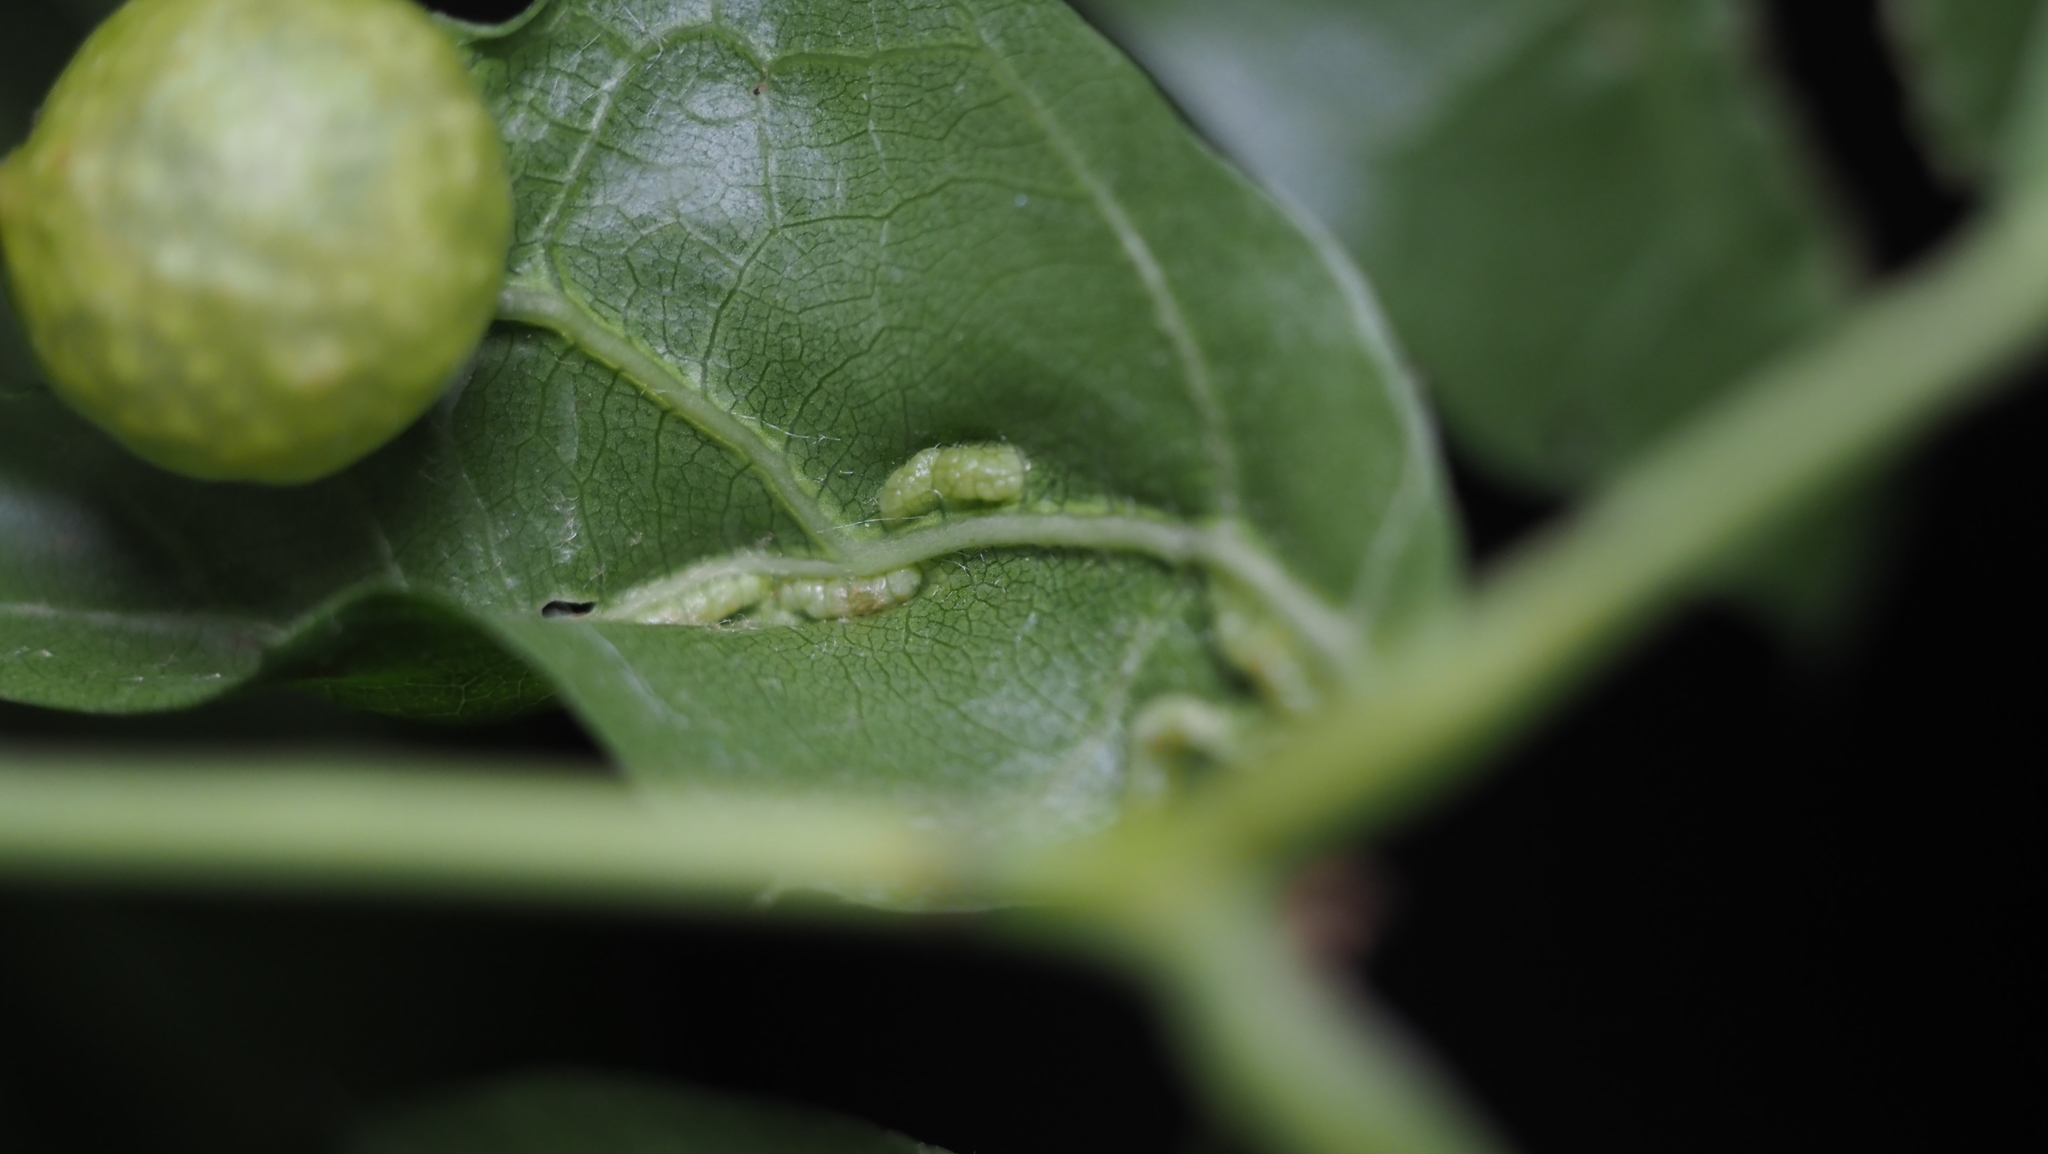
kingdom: Animalia
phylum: Arthropoda
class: Insecta
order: Diptera
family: Cecidomyiidae
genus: Macrodiplosis
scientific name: Macrodiplosis q-orucum
